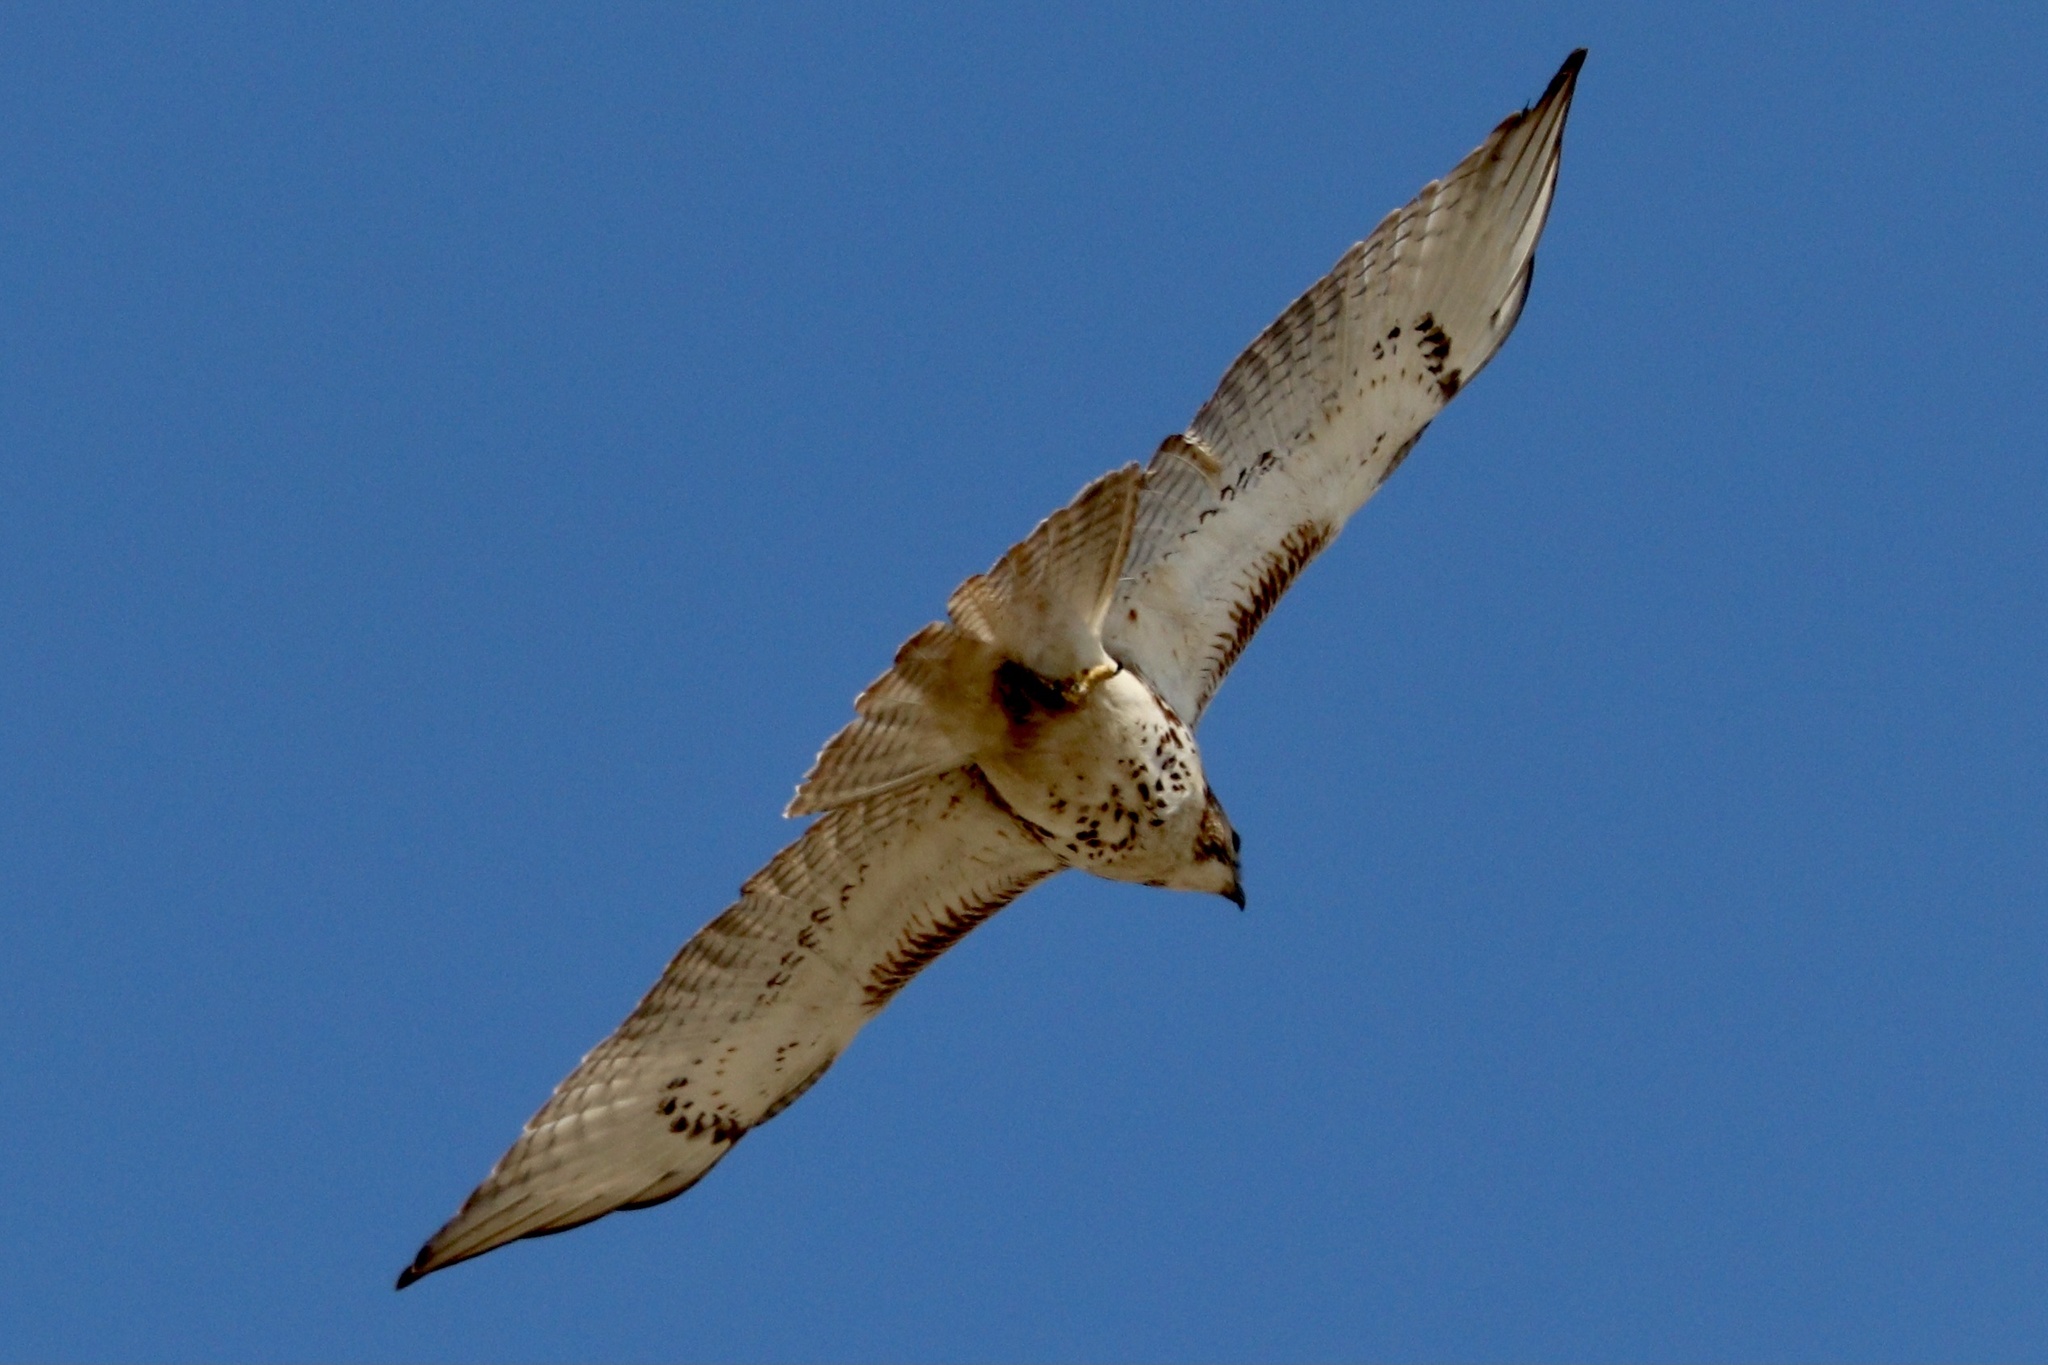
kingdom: Animalia
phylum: Chordata
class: Aves
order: Accipitriformes
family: Accipitridae
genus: Buteo
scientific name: Buteo jamaicensis
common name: Red-tailed hawk
